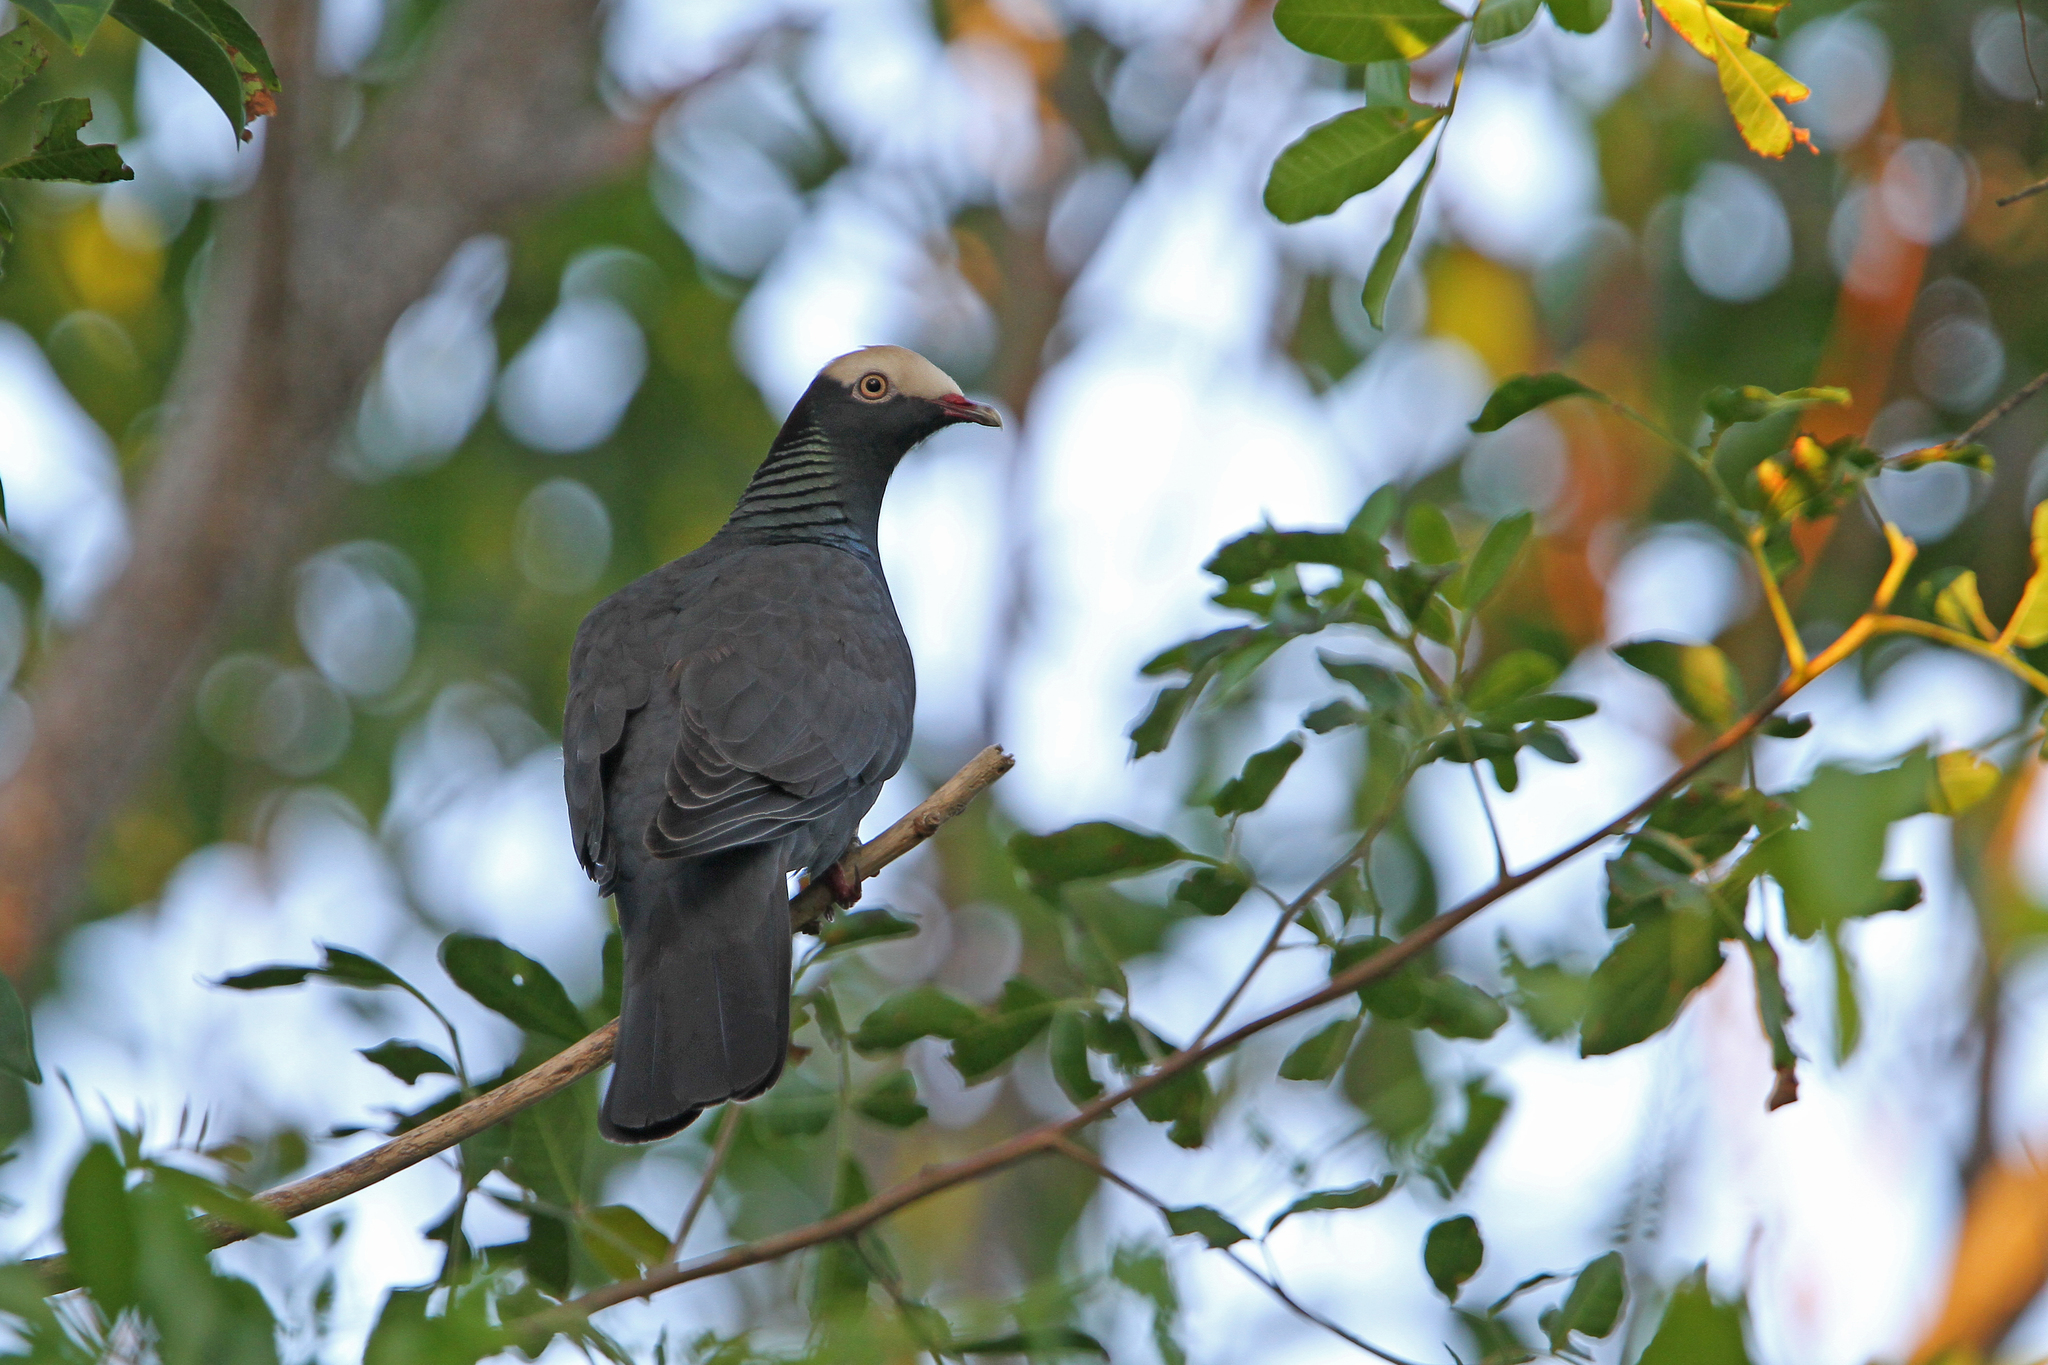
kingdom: Animalia
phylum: Chordata
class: Aves
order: Columbiformes
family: Columbidae
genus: Patagioenas
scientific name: Patagioenas leucocephala
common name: White-crowned pigeon
